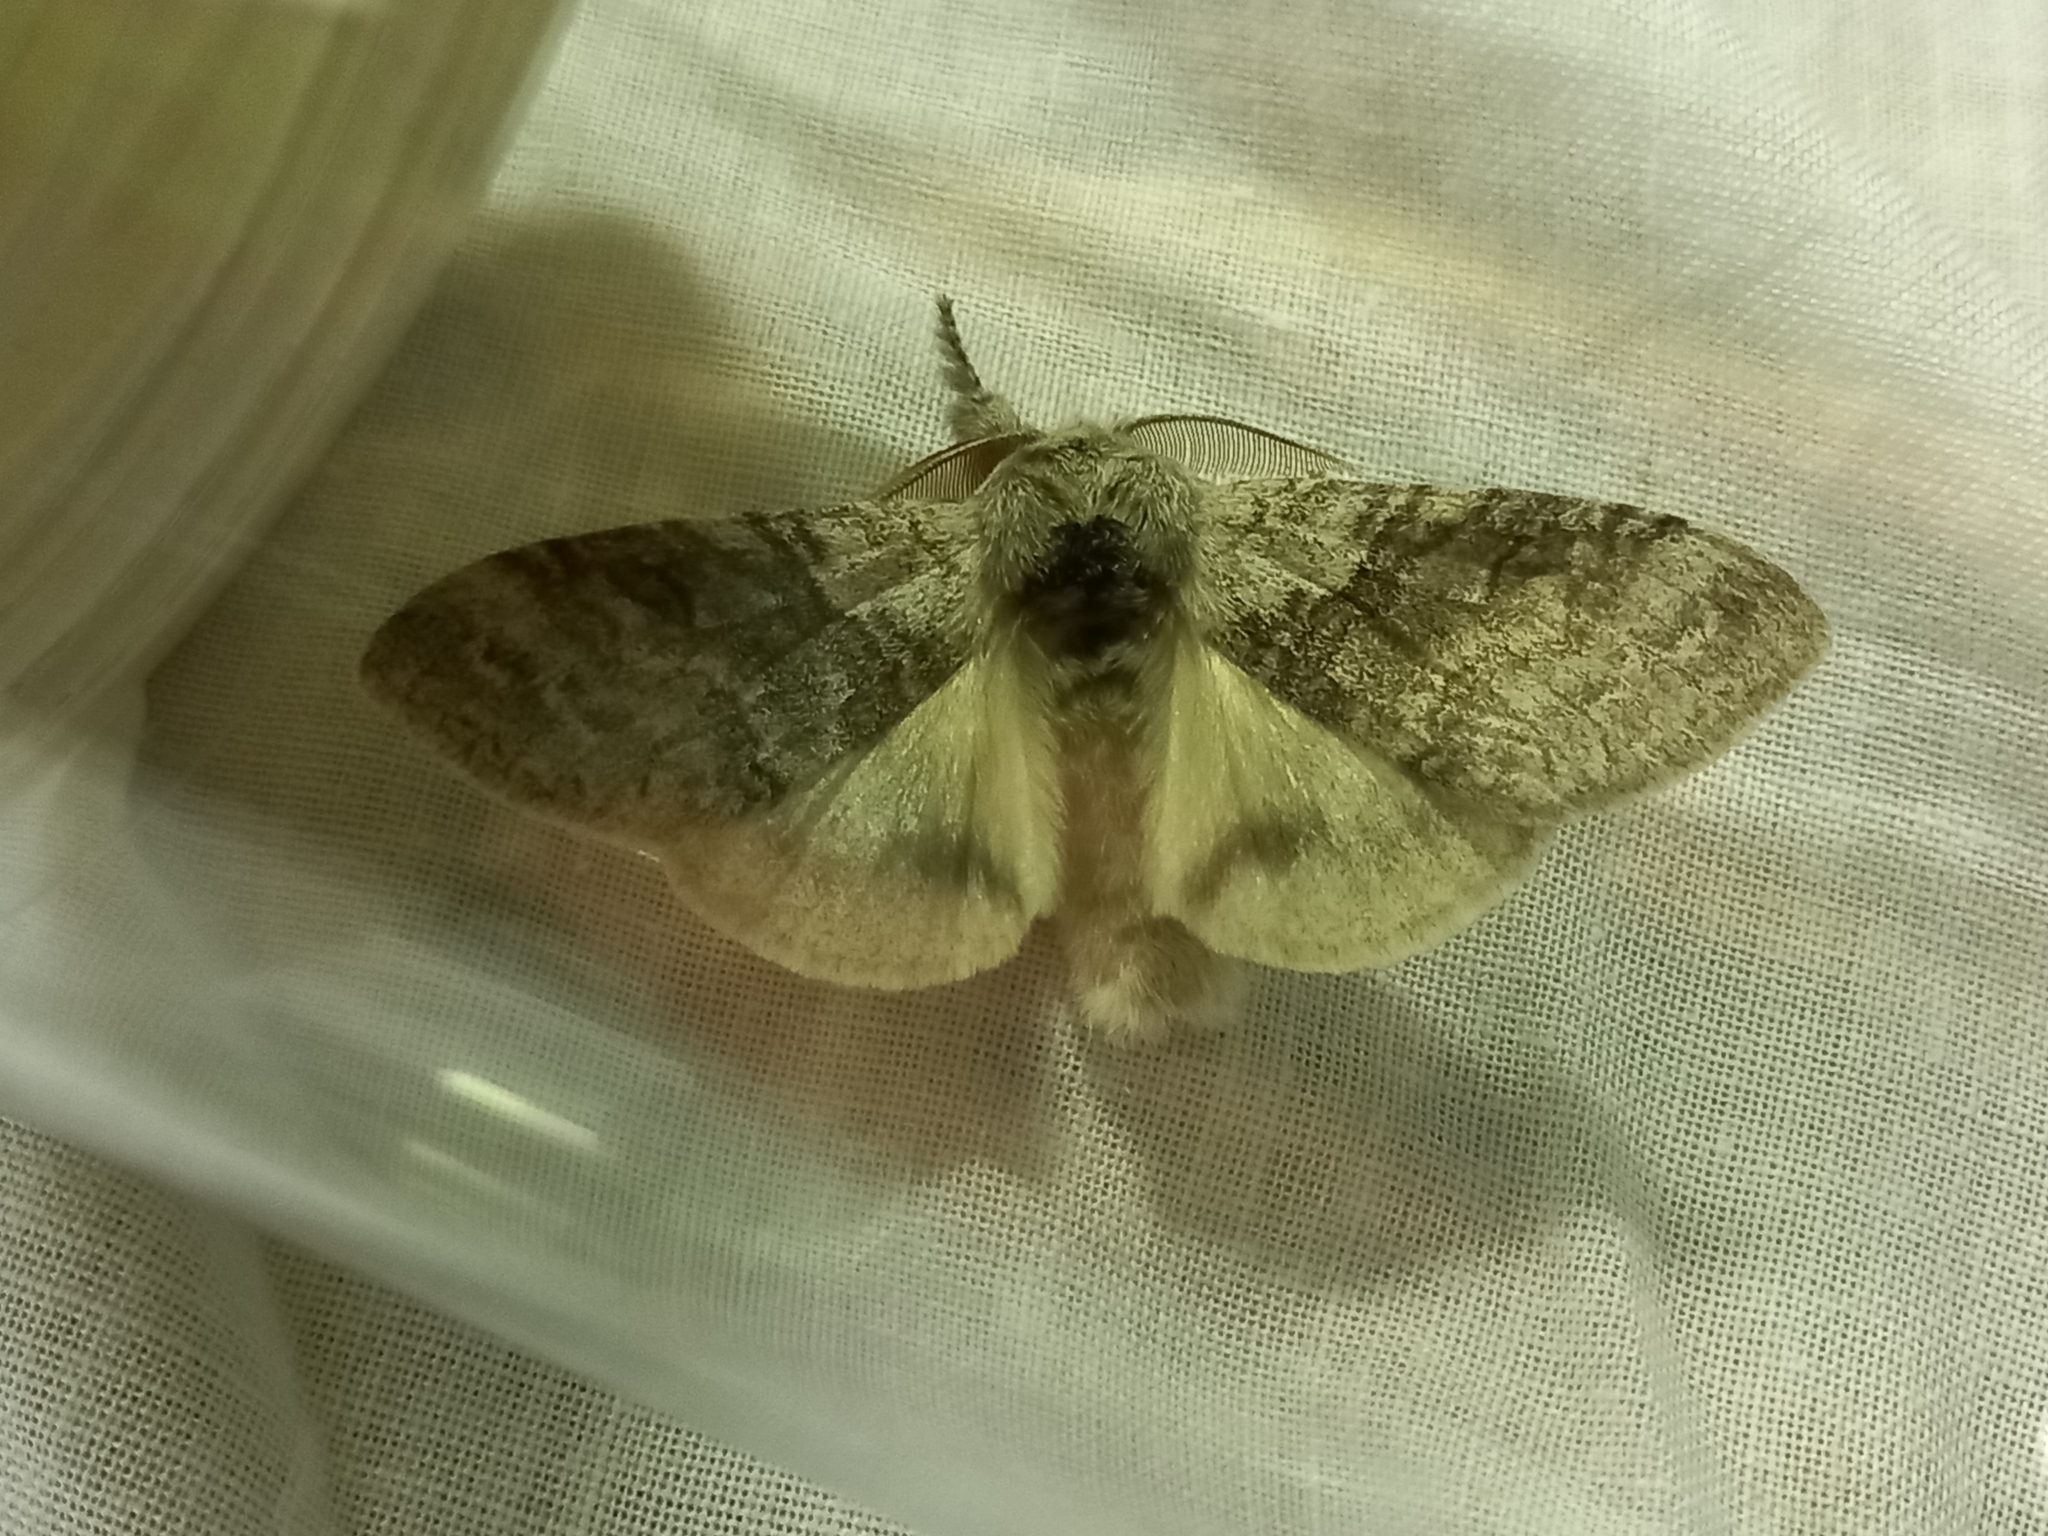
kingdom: Animalia
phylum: Arthropoda
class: Insecta
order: Lepidoptera
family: Erebidae
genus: Calliteara
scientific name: Calliteara pudibunda
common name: Pale tussock
